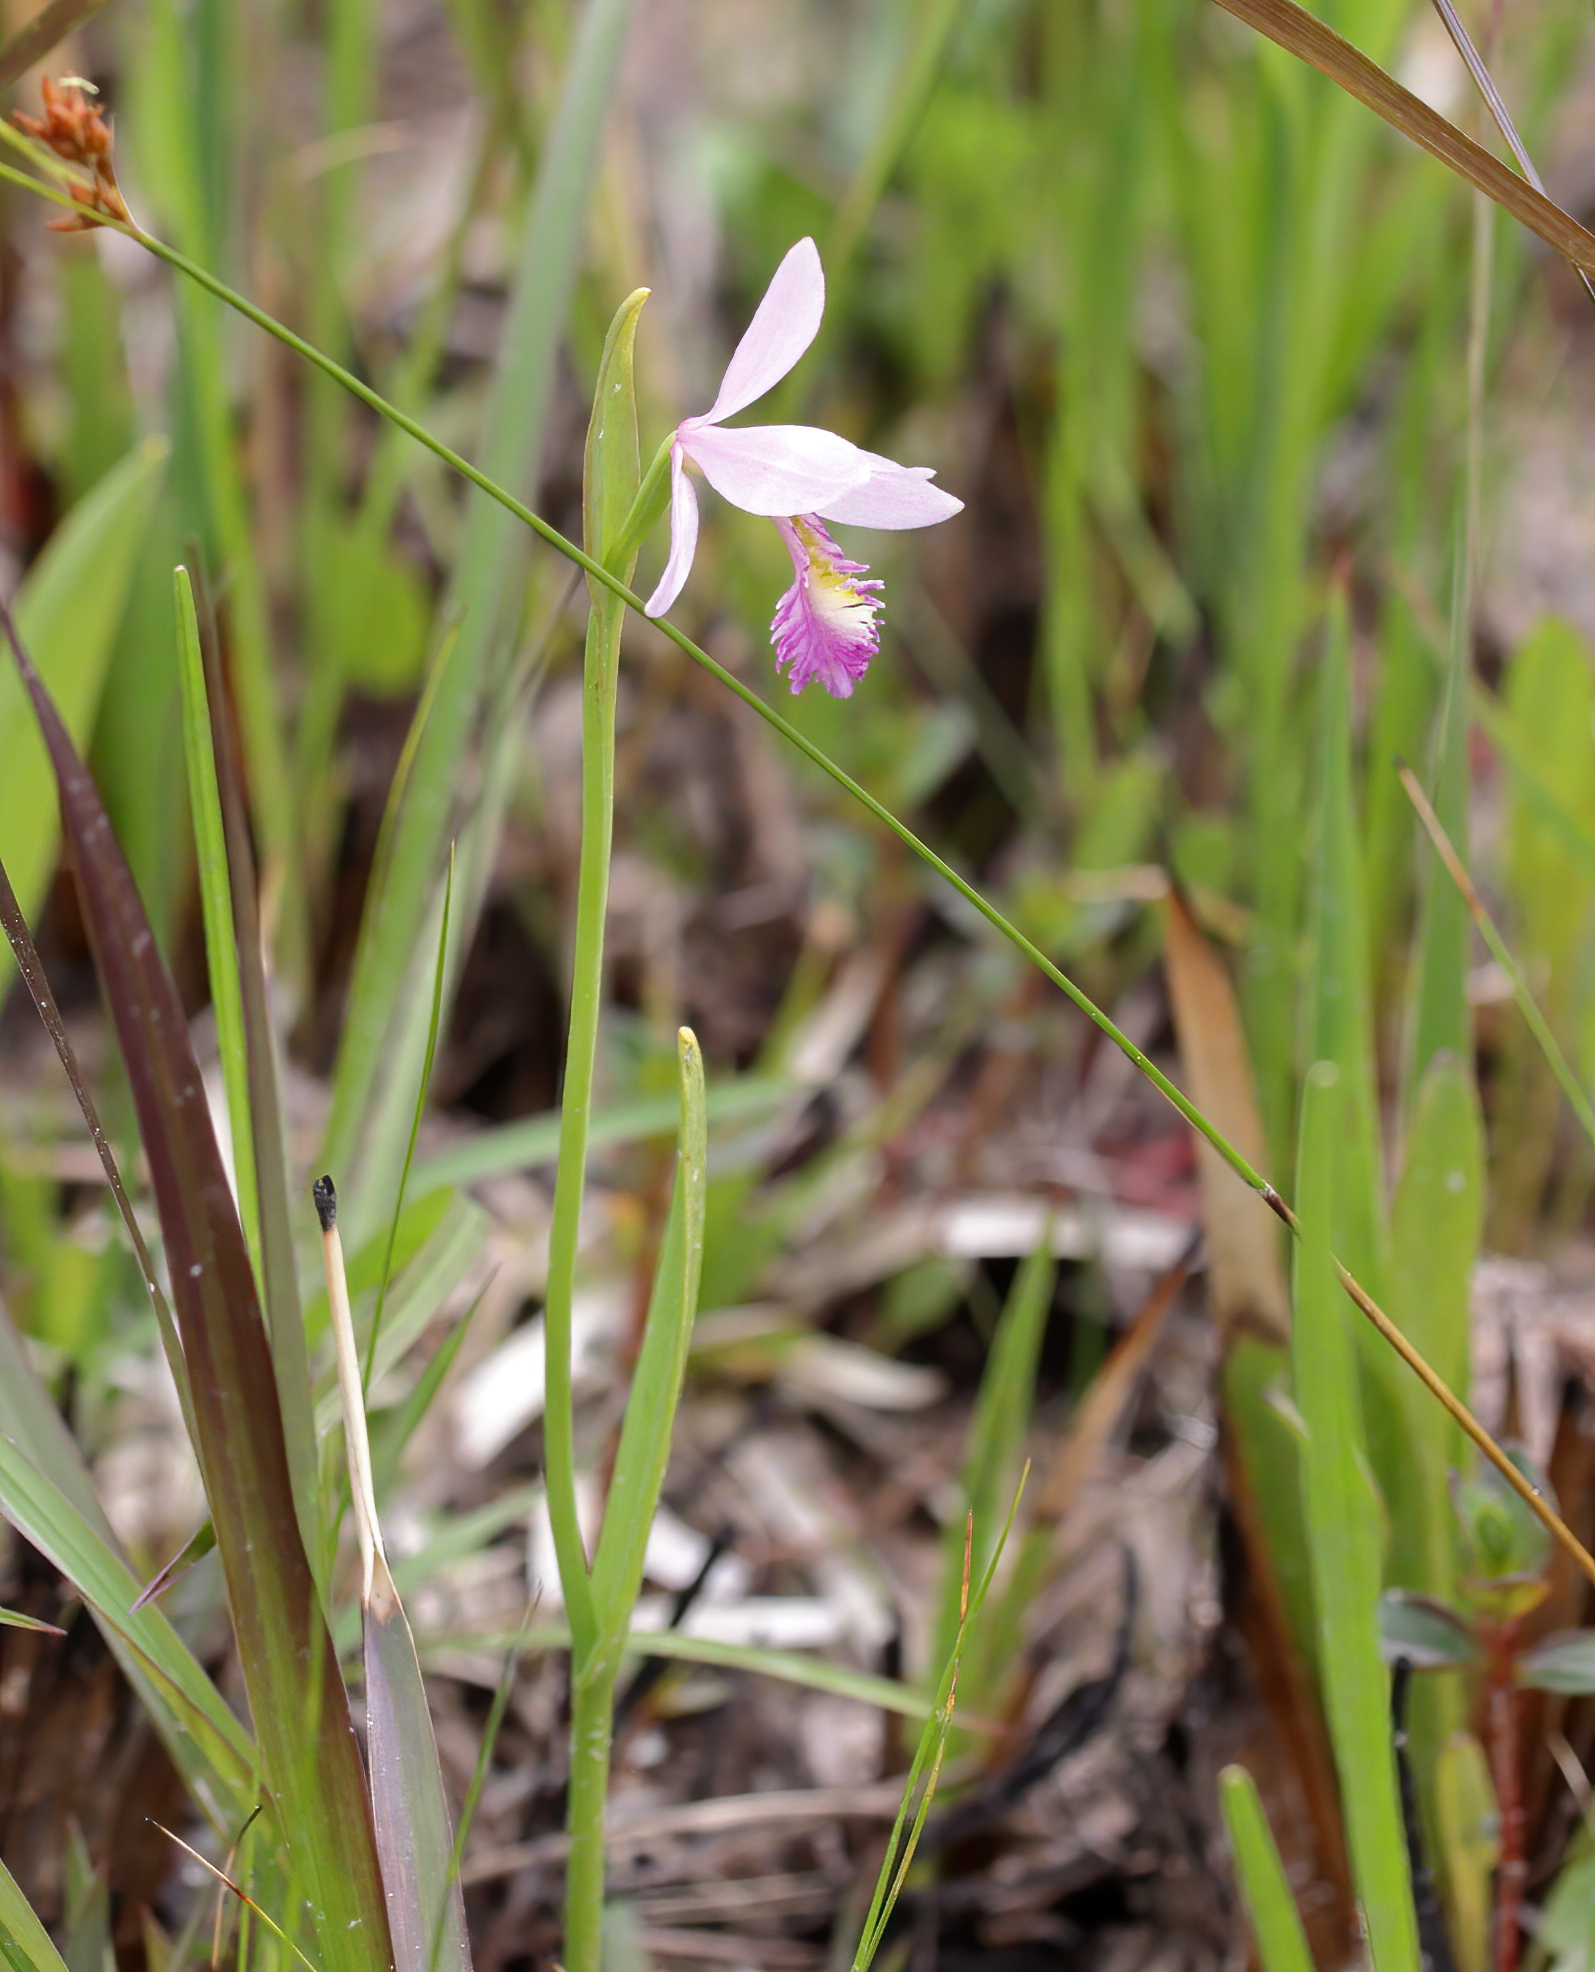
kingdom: Plantae
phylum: Tracheophyta
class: Liliopsida
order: Asparagales
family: Orchidaceae
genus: Pogonia
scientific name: Pogonia ophioglossoides
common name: Rose pogonia
